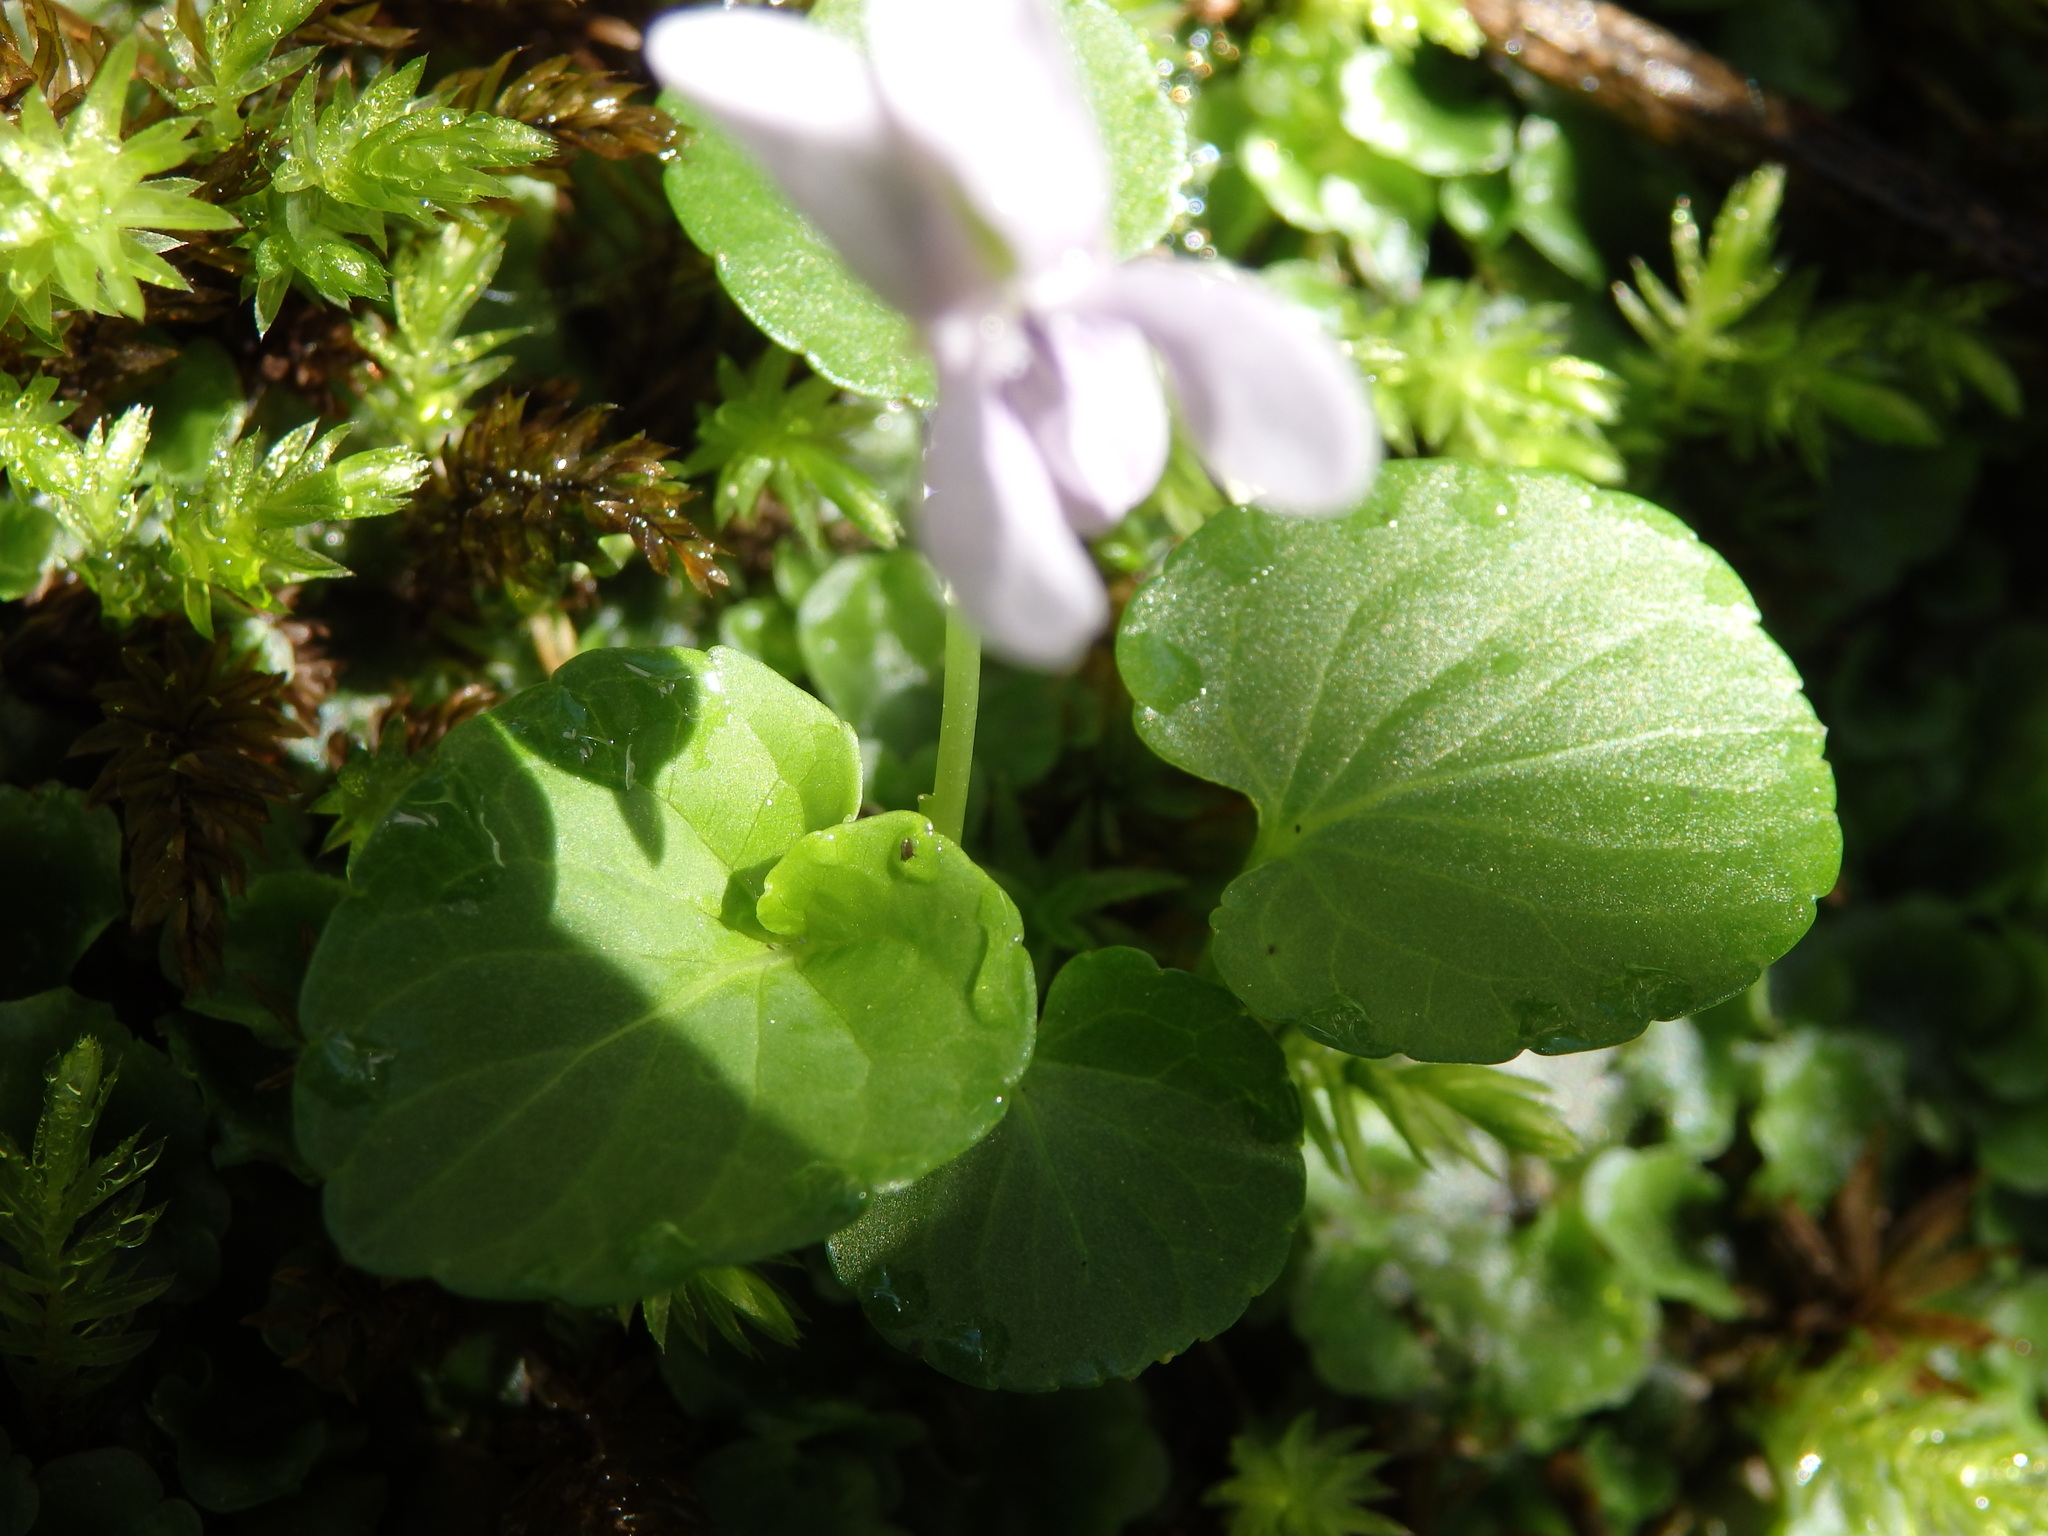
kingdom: Plantae
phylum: Tracheophyta
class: Magnoliopsida
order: Malpighiales
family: Violaceae
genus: Viola
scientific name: Viola palustris
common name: Marsh violet
